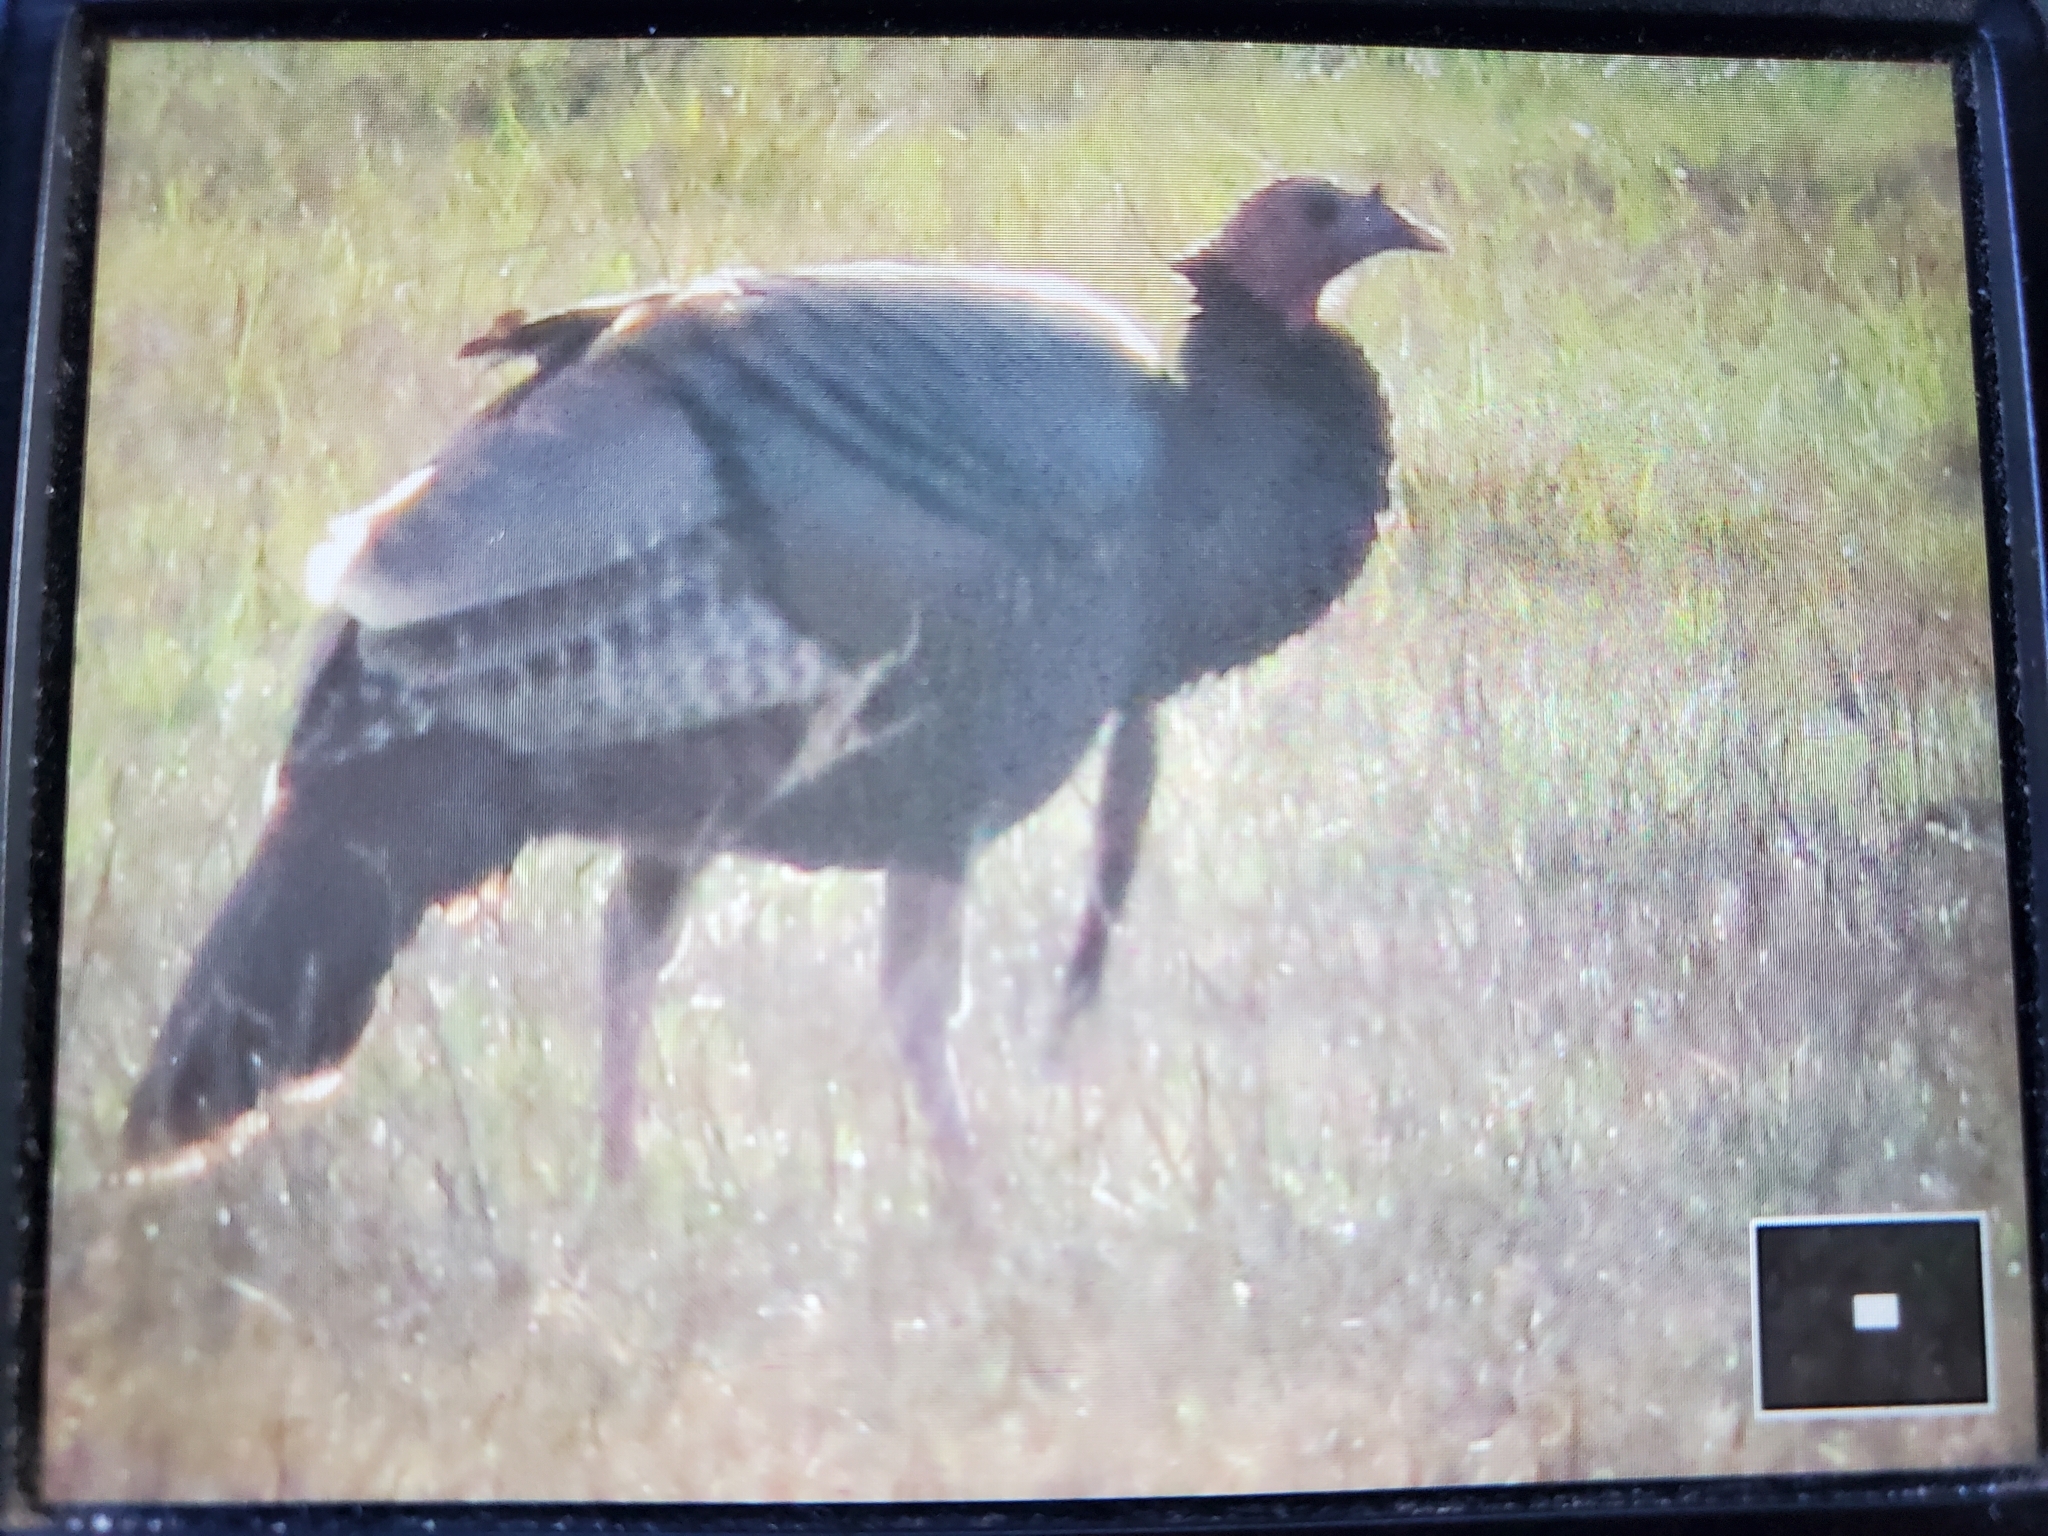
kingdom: Animalia
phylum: Chordata
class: Aves
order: Galliformes
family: Phasianidae
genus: Meleagris
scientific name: Meleagris gallopavo
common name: Wild turkey
